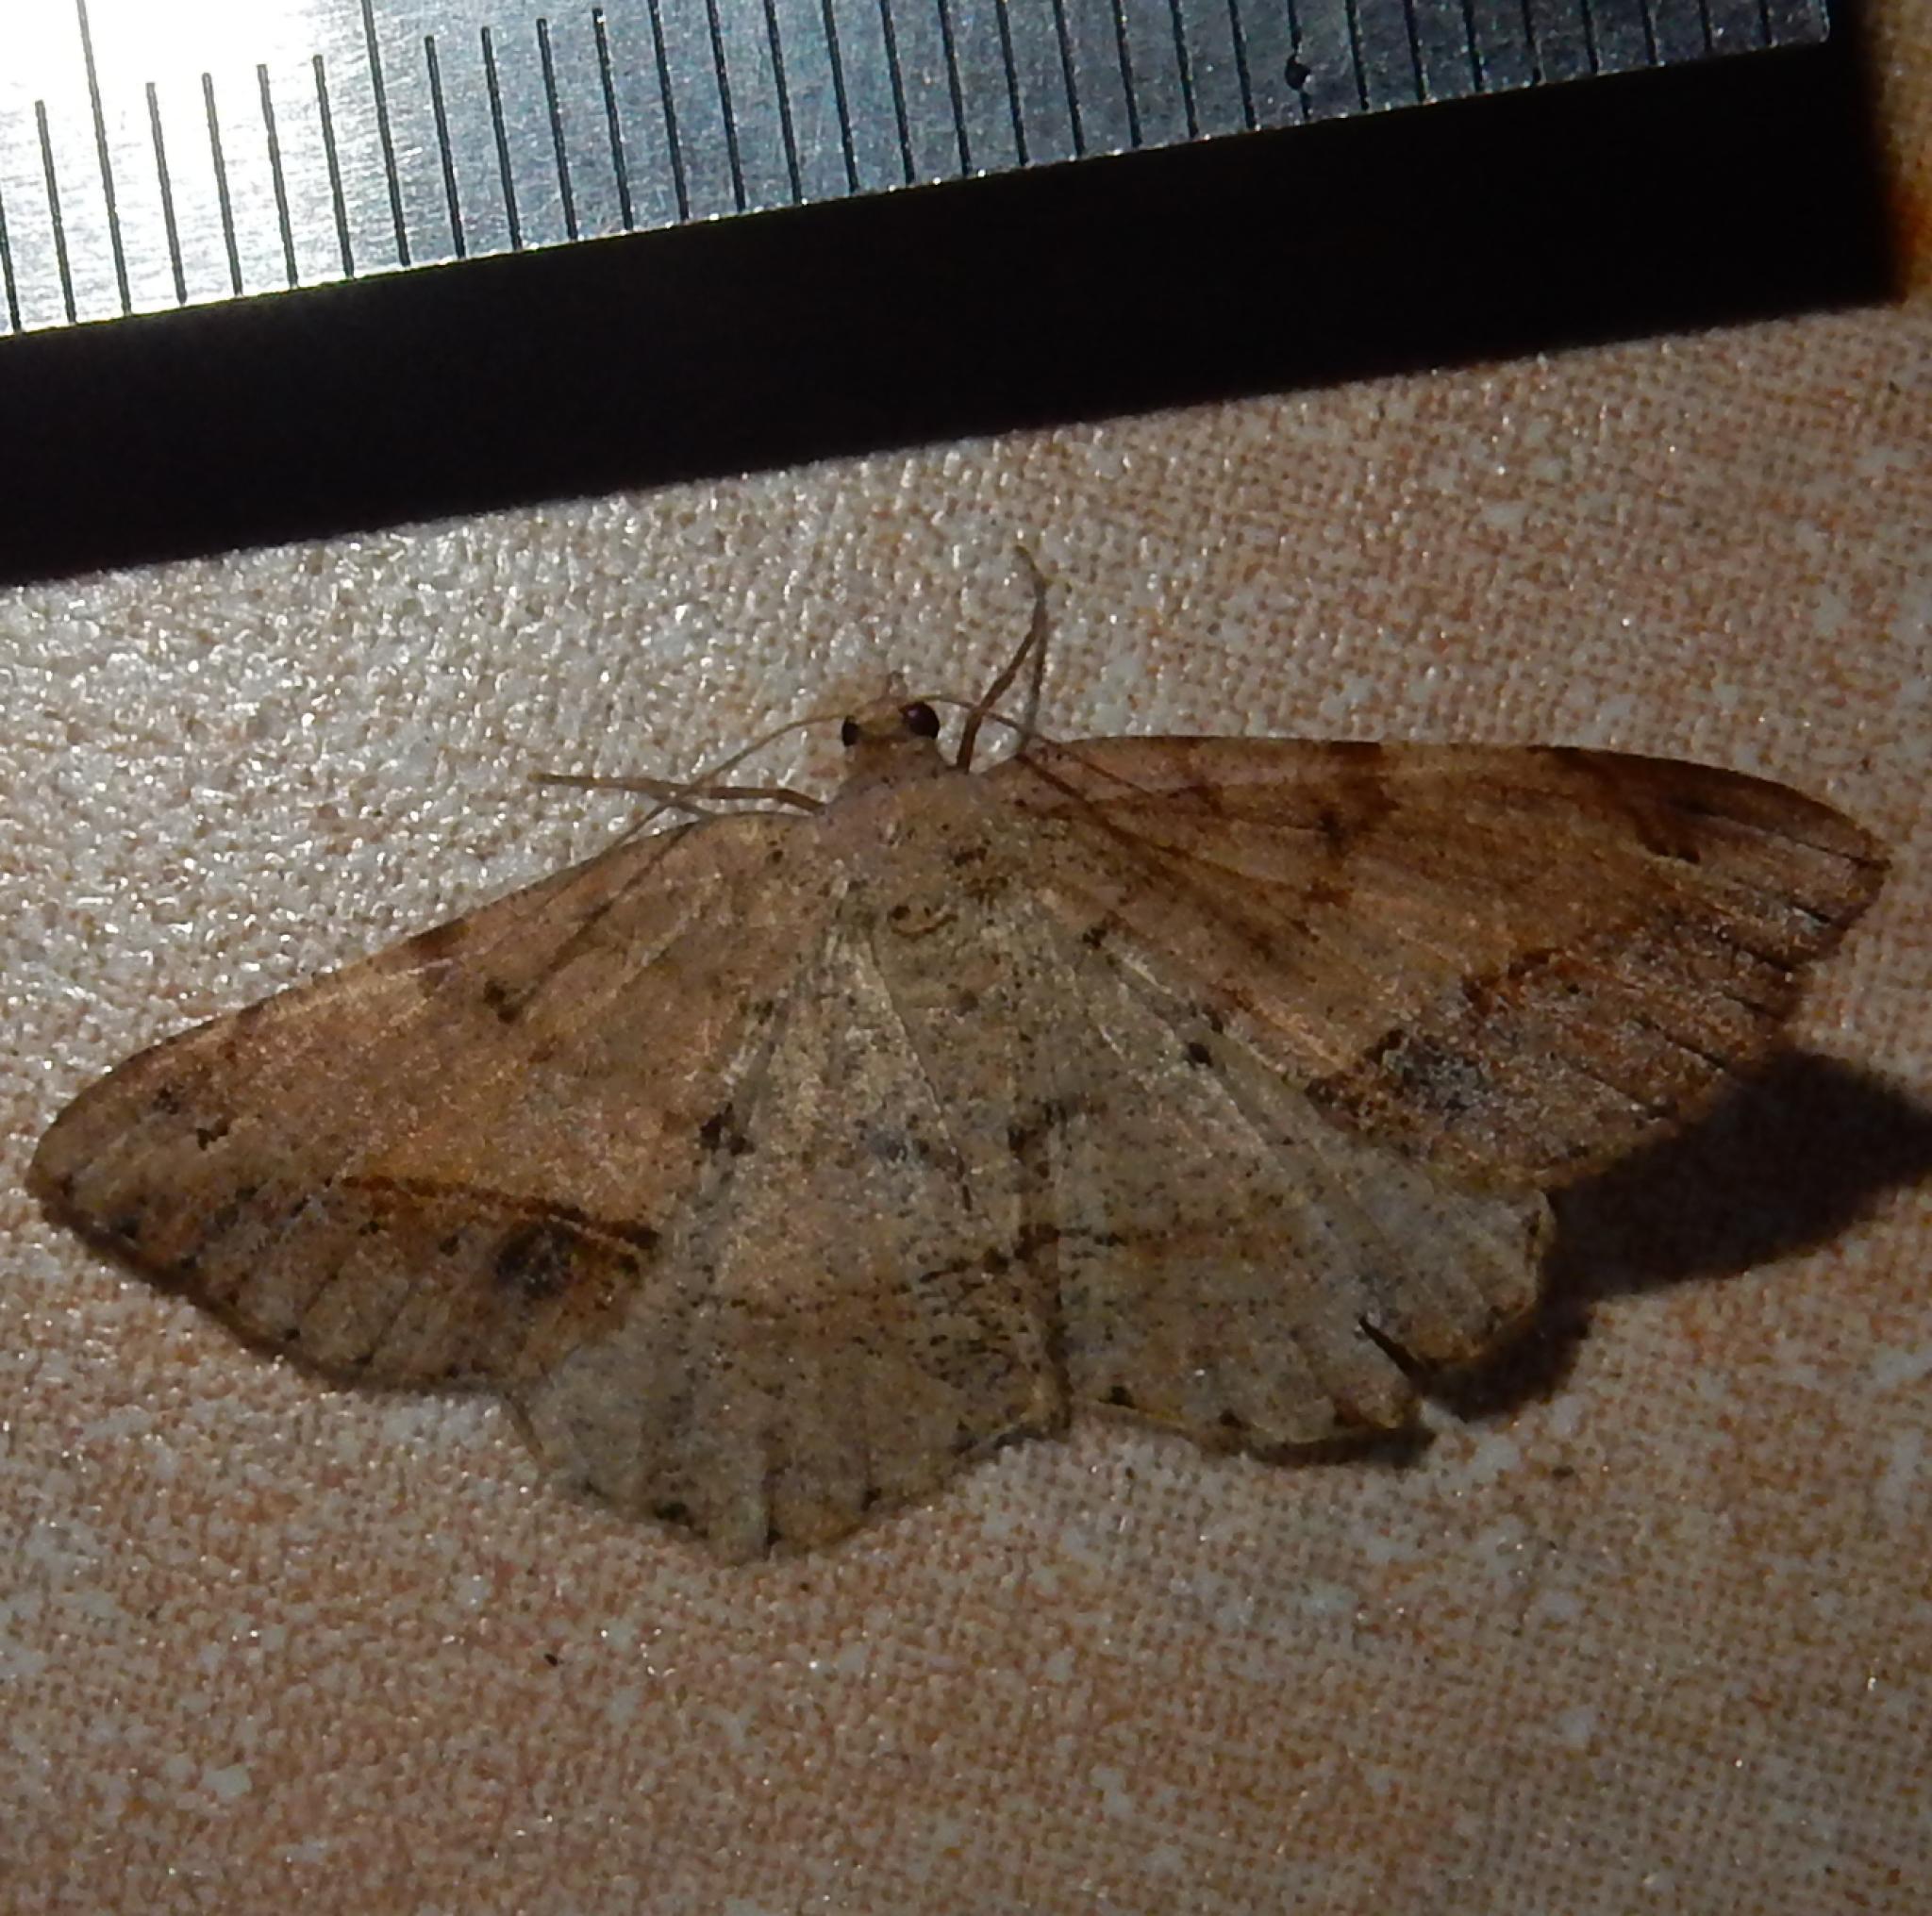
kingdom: Animalia
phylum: Arthropoda
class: Insecta
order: Lepidoptera
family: Geometridae
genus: Chiasmia
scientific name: Chiasmia brongusaria
